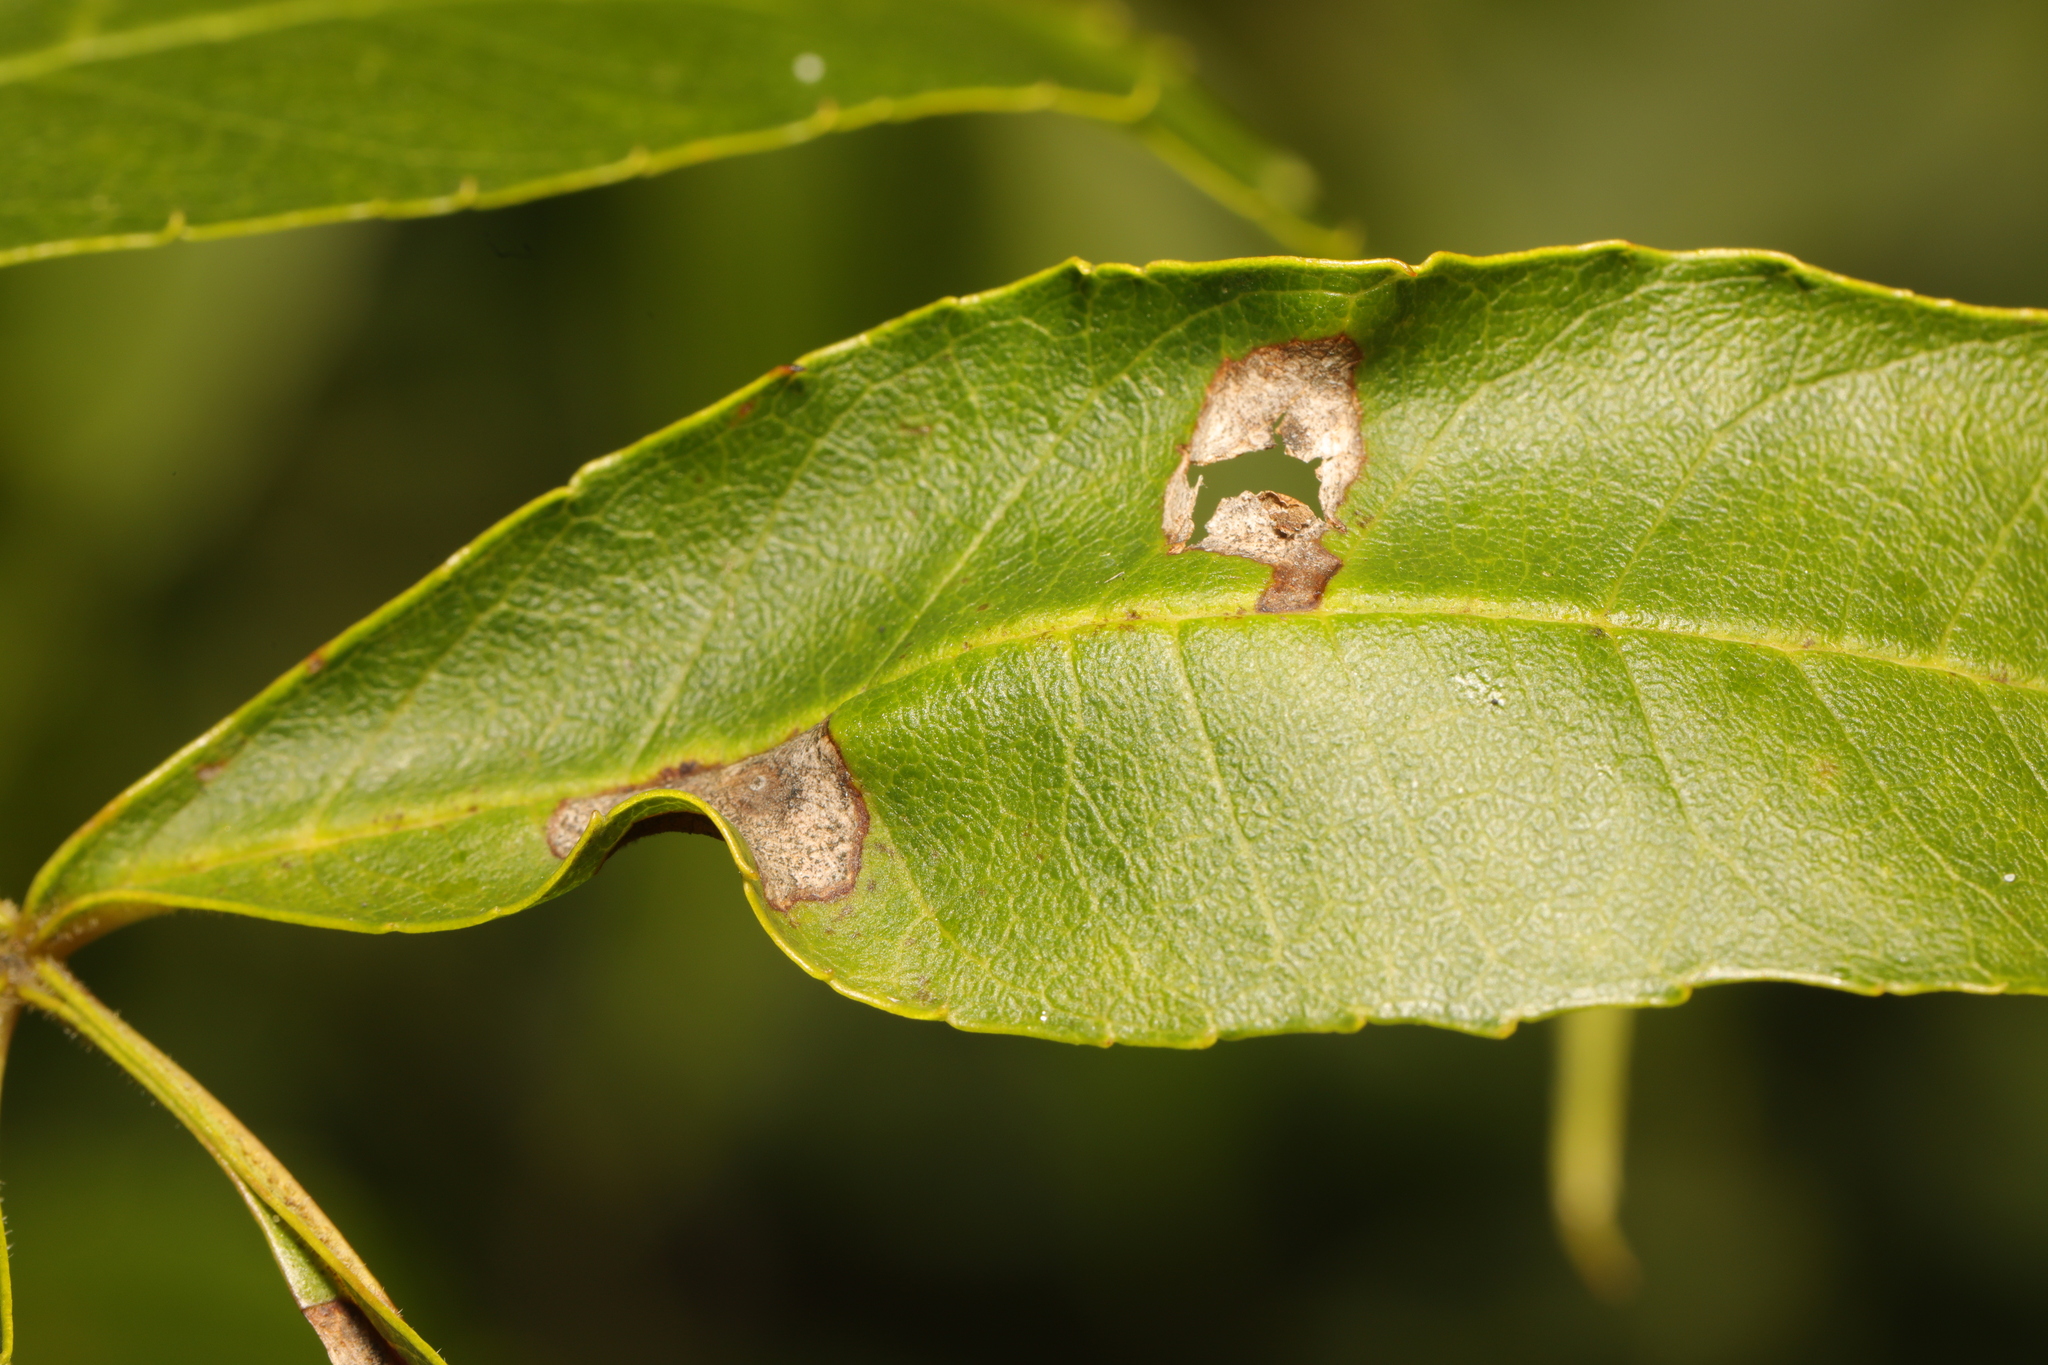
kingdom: Animalia
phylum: Arthropoda
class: Insecta
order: Diptera
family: Cecidomyiidae
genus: Dasineura
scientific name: Dasineura fraxinea
